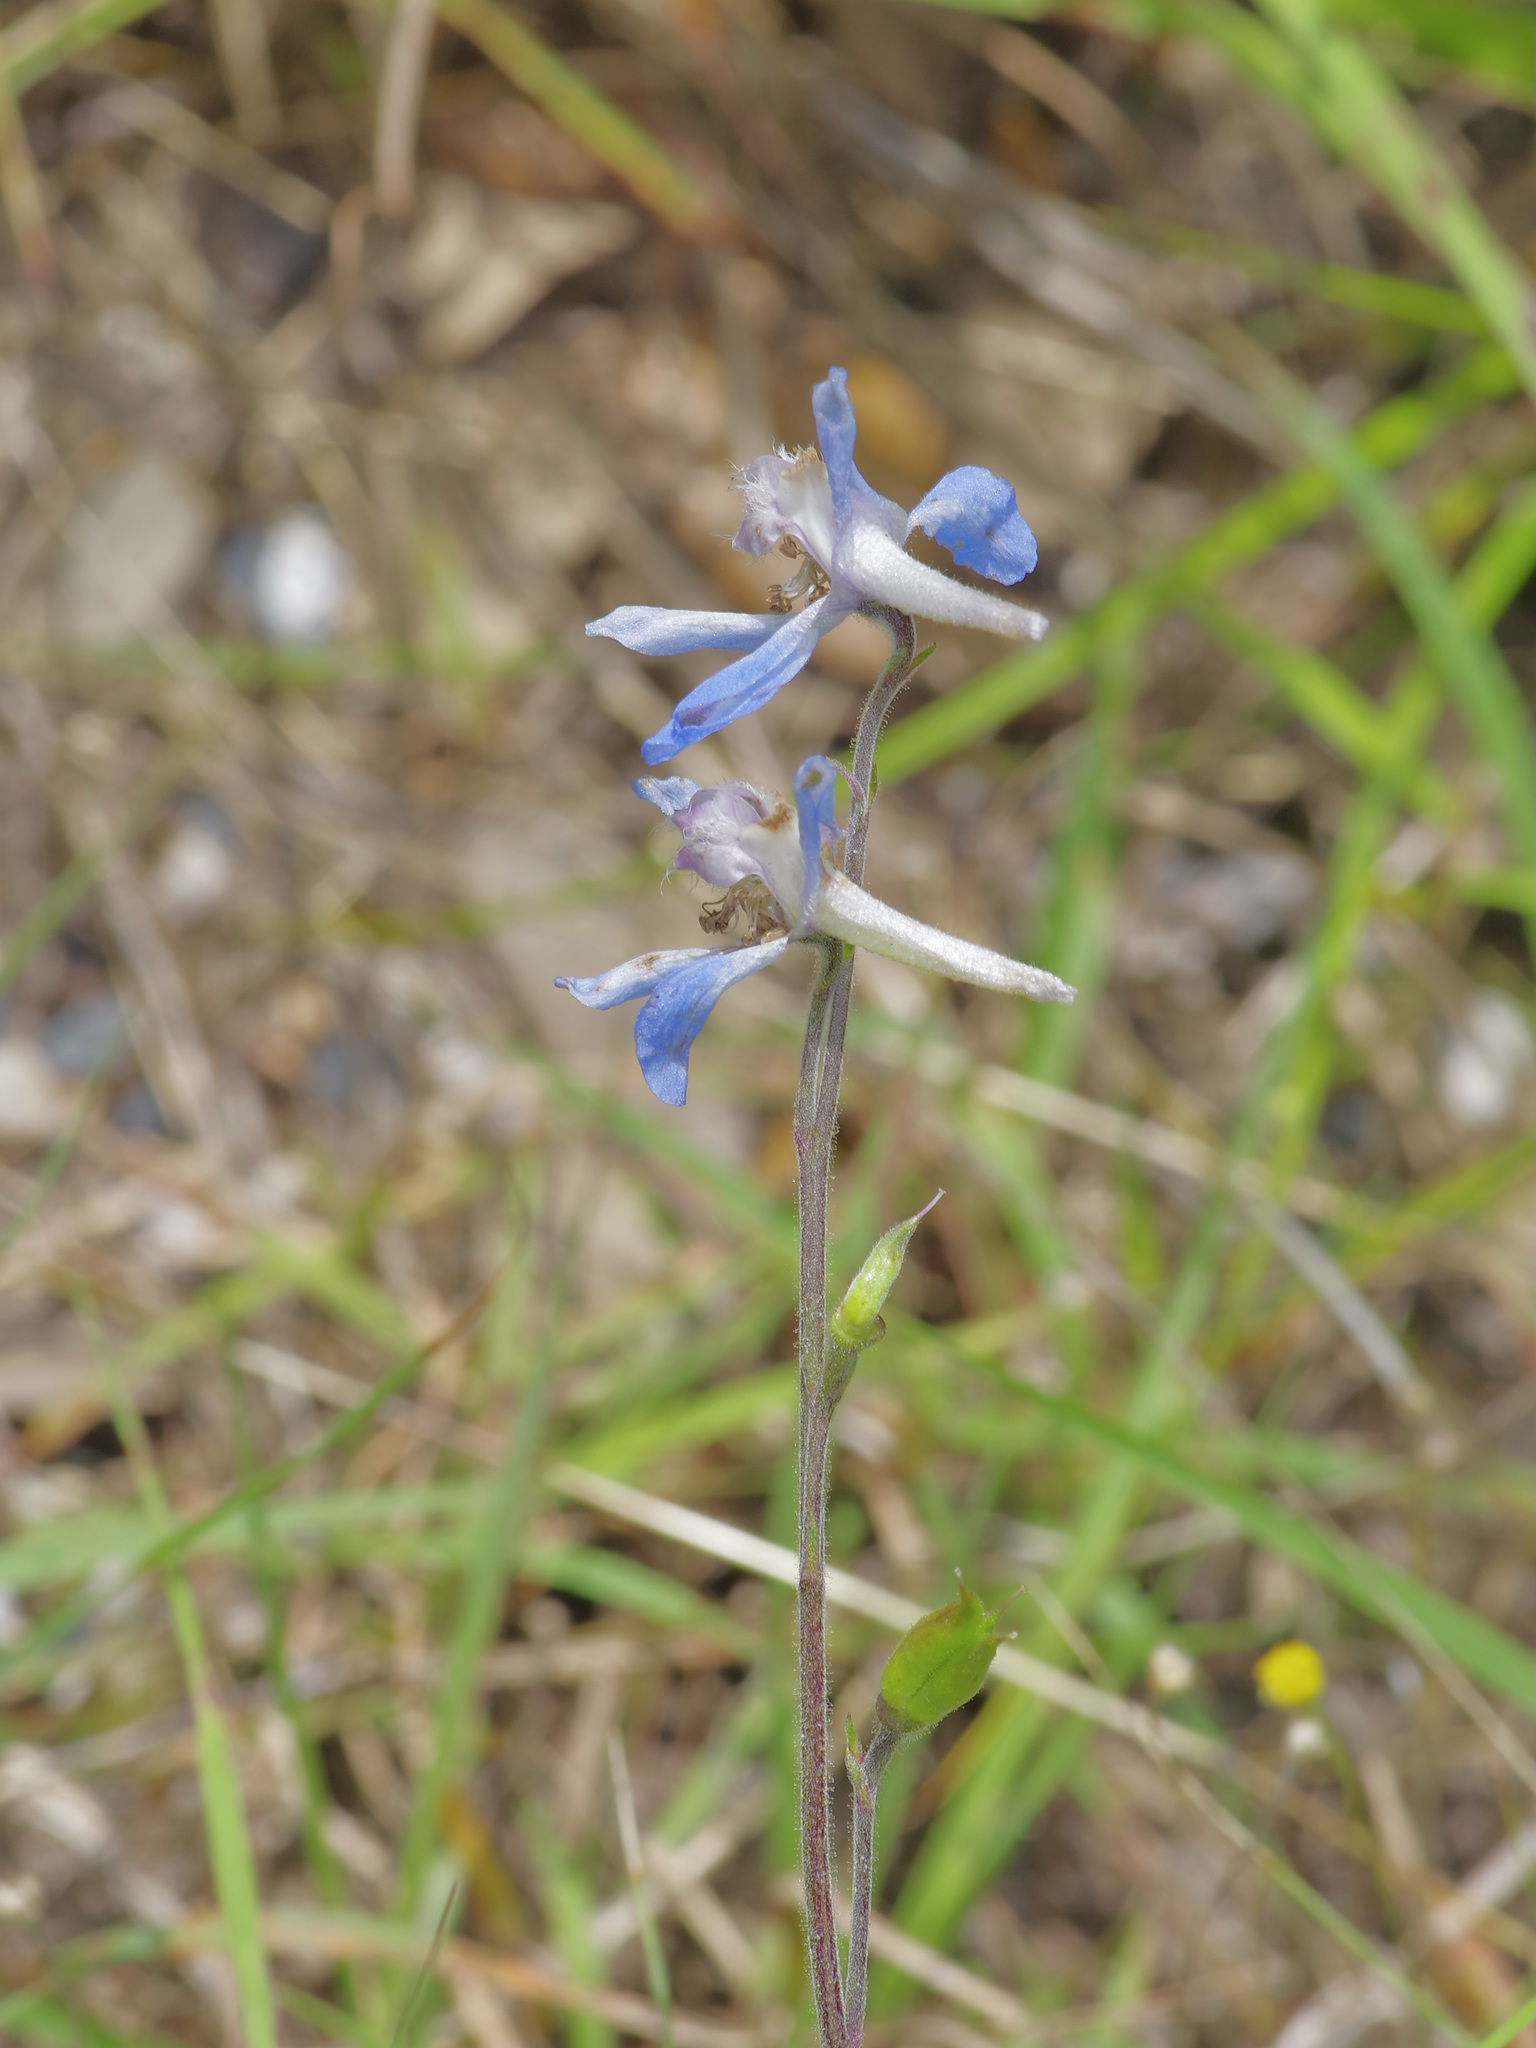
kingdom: Plantae
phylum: Tracheophyta
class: Magnoliopsida
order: Ranunculales
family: Ranunculaceae
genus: Delphinium
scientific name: Delphinium carolinianum
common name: Carolina larkspur
